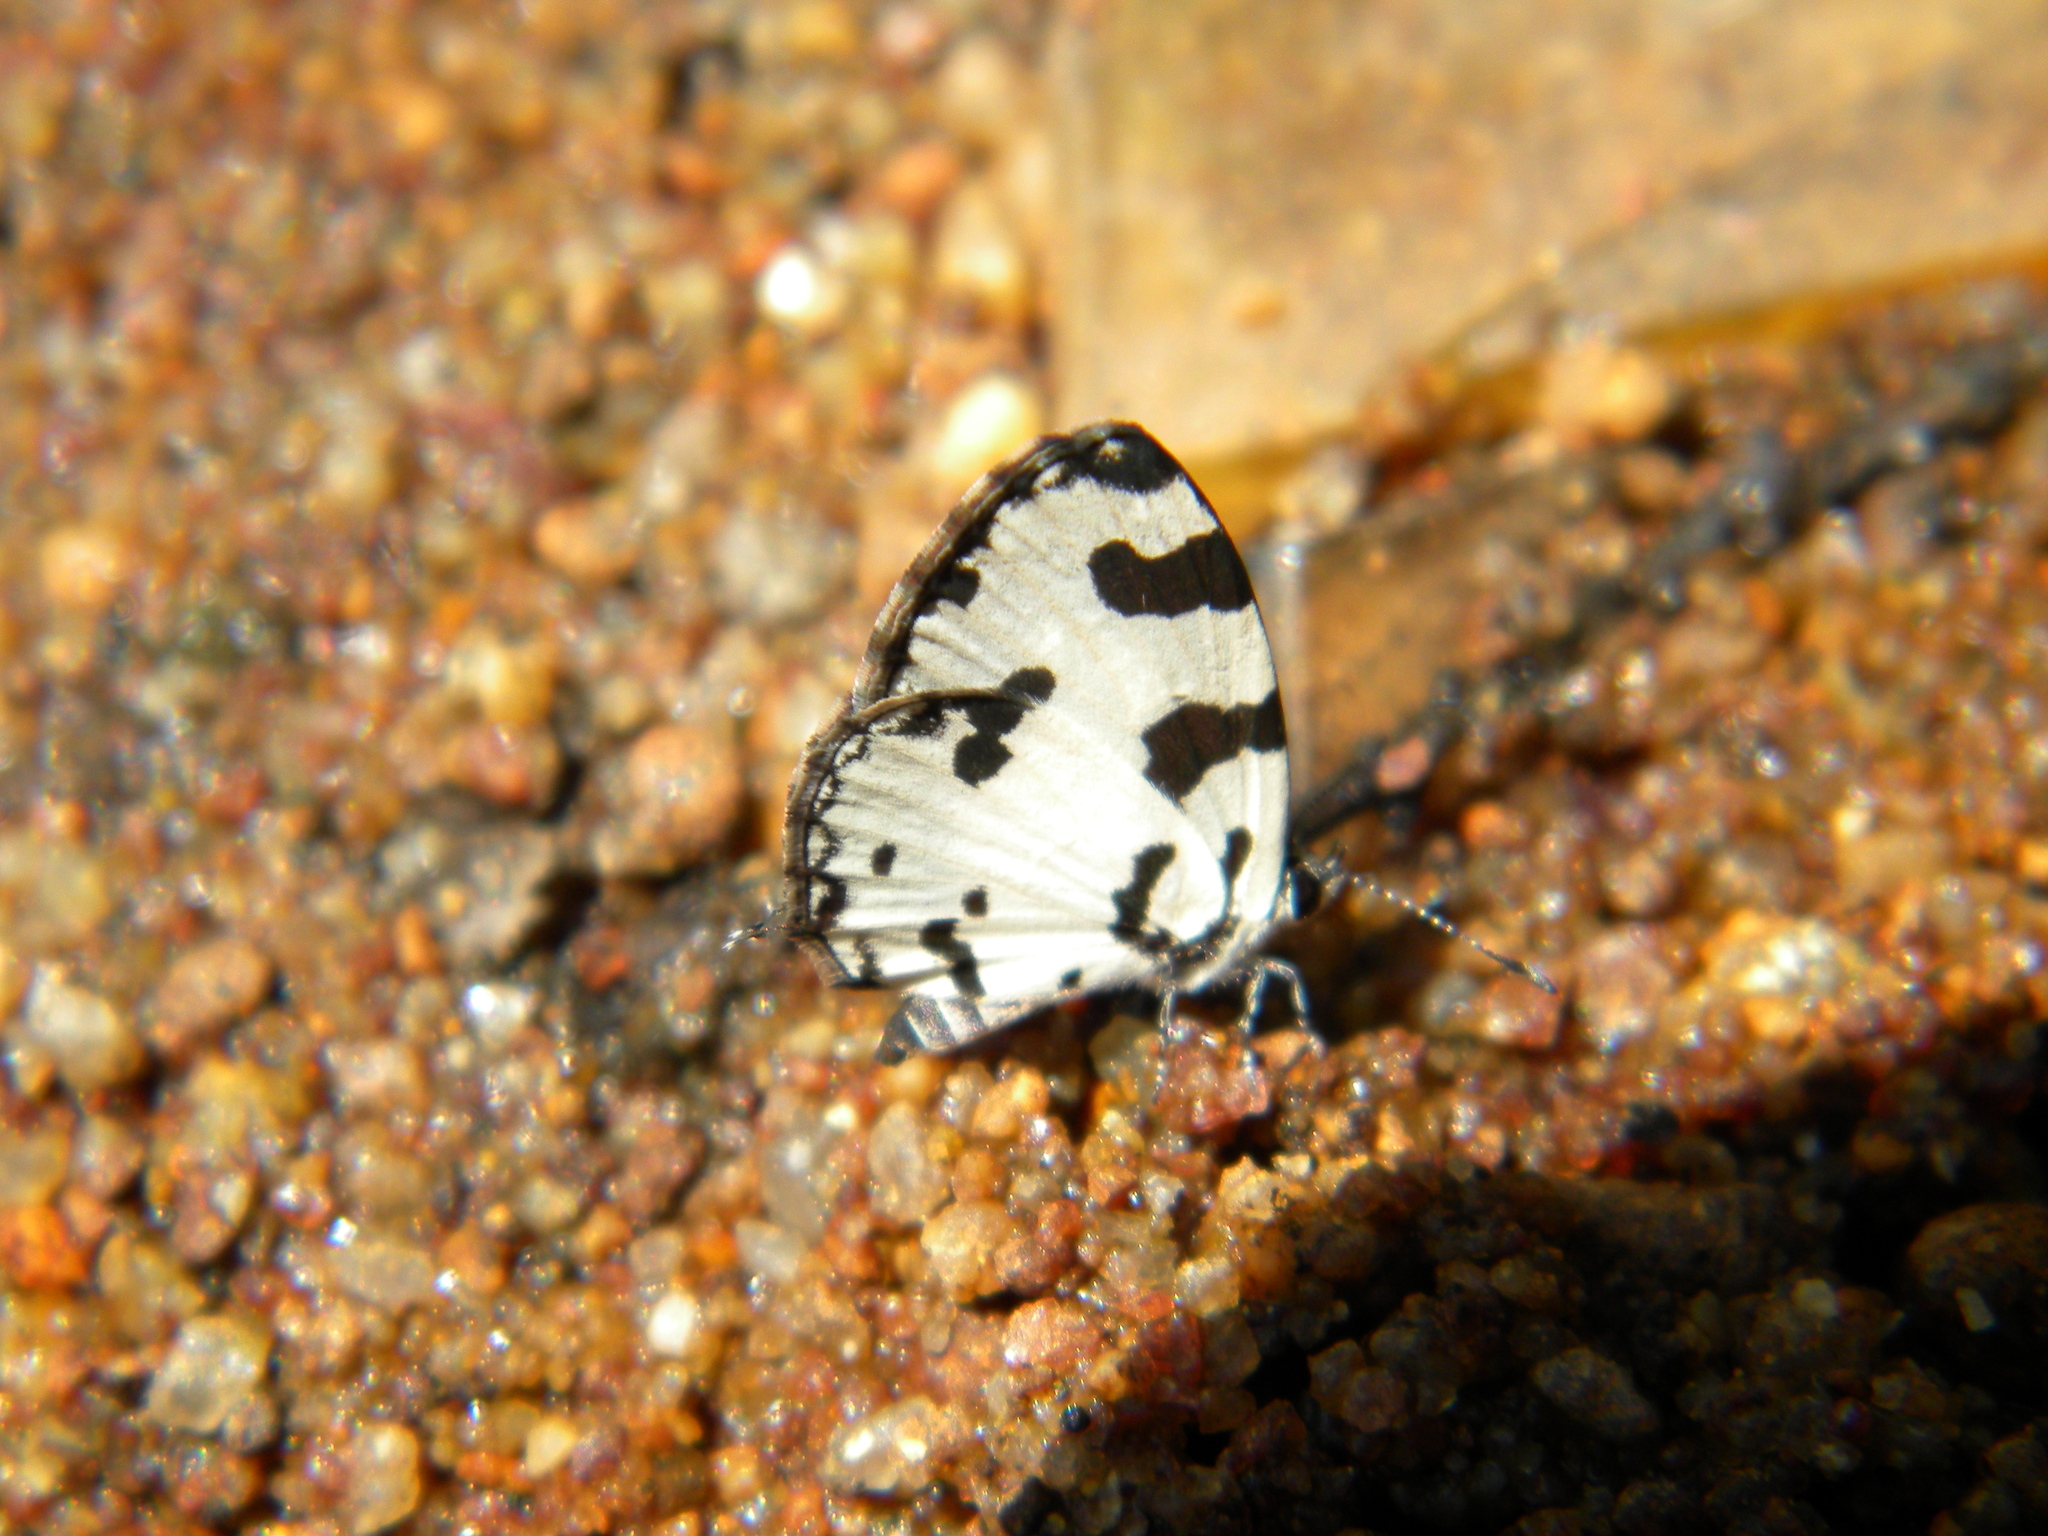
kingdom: Animalia
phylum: Arthropoda
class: Insecta
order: Lepidoptera
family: Lycaenidae
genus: Caleta
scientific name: Caleta decidia
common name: Angled pierrot
